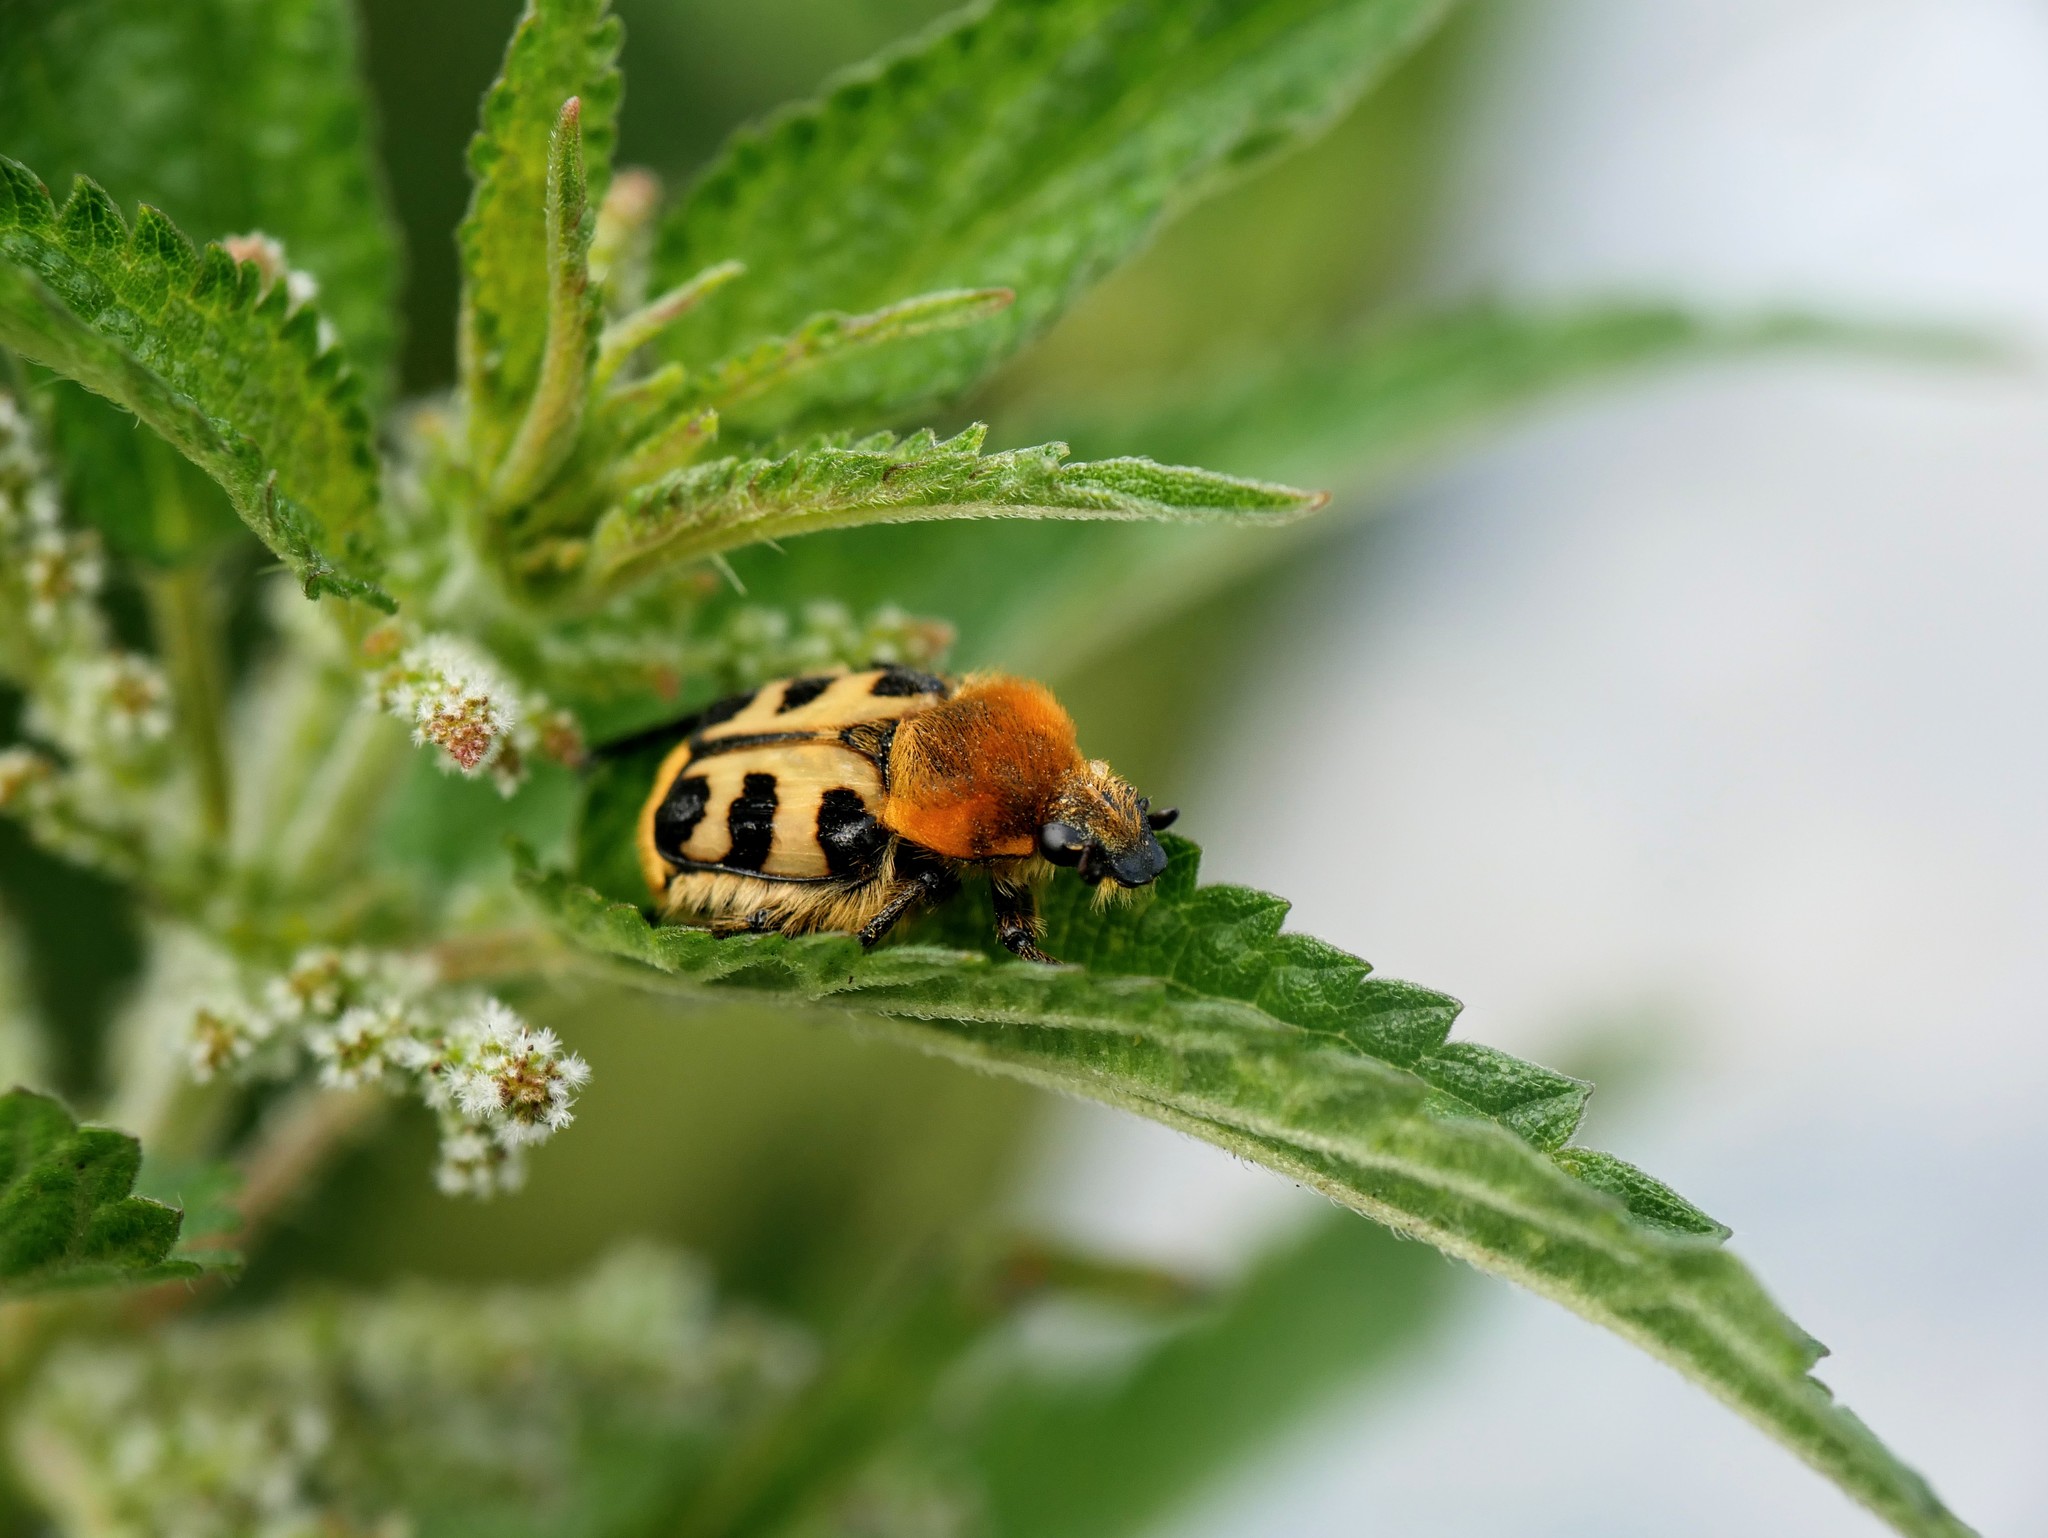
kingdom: Animalia
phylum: Arthropoda
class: Insecta
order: Coleoptera
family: Scarabaeidae
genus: Trichius
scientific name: Trichius gallicus
